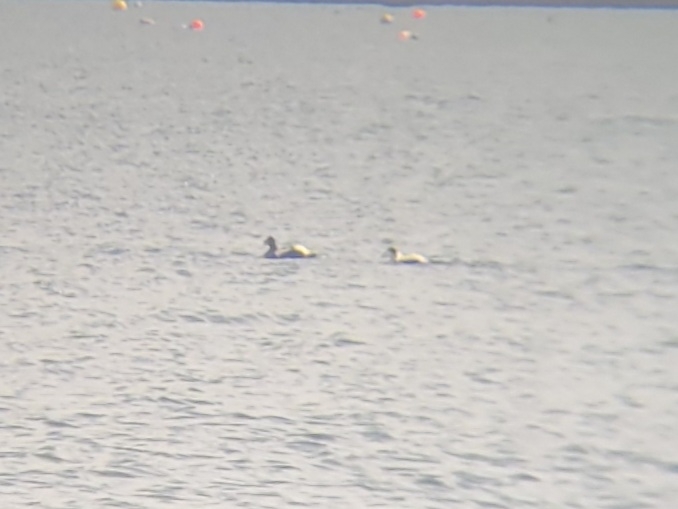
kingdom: Animalia
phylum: Chordata
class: Aves
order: Anseriformes
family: Anatidae
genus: Somateria
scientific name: Somateria mollissima
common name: Common eider
